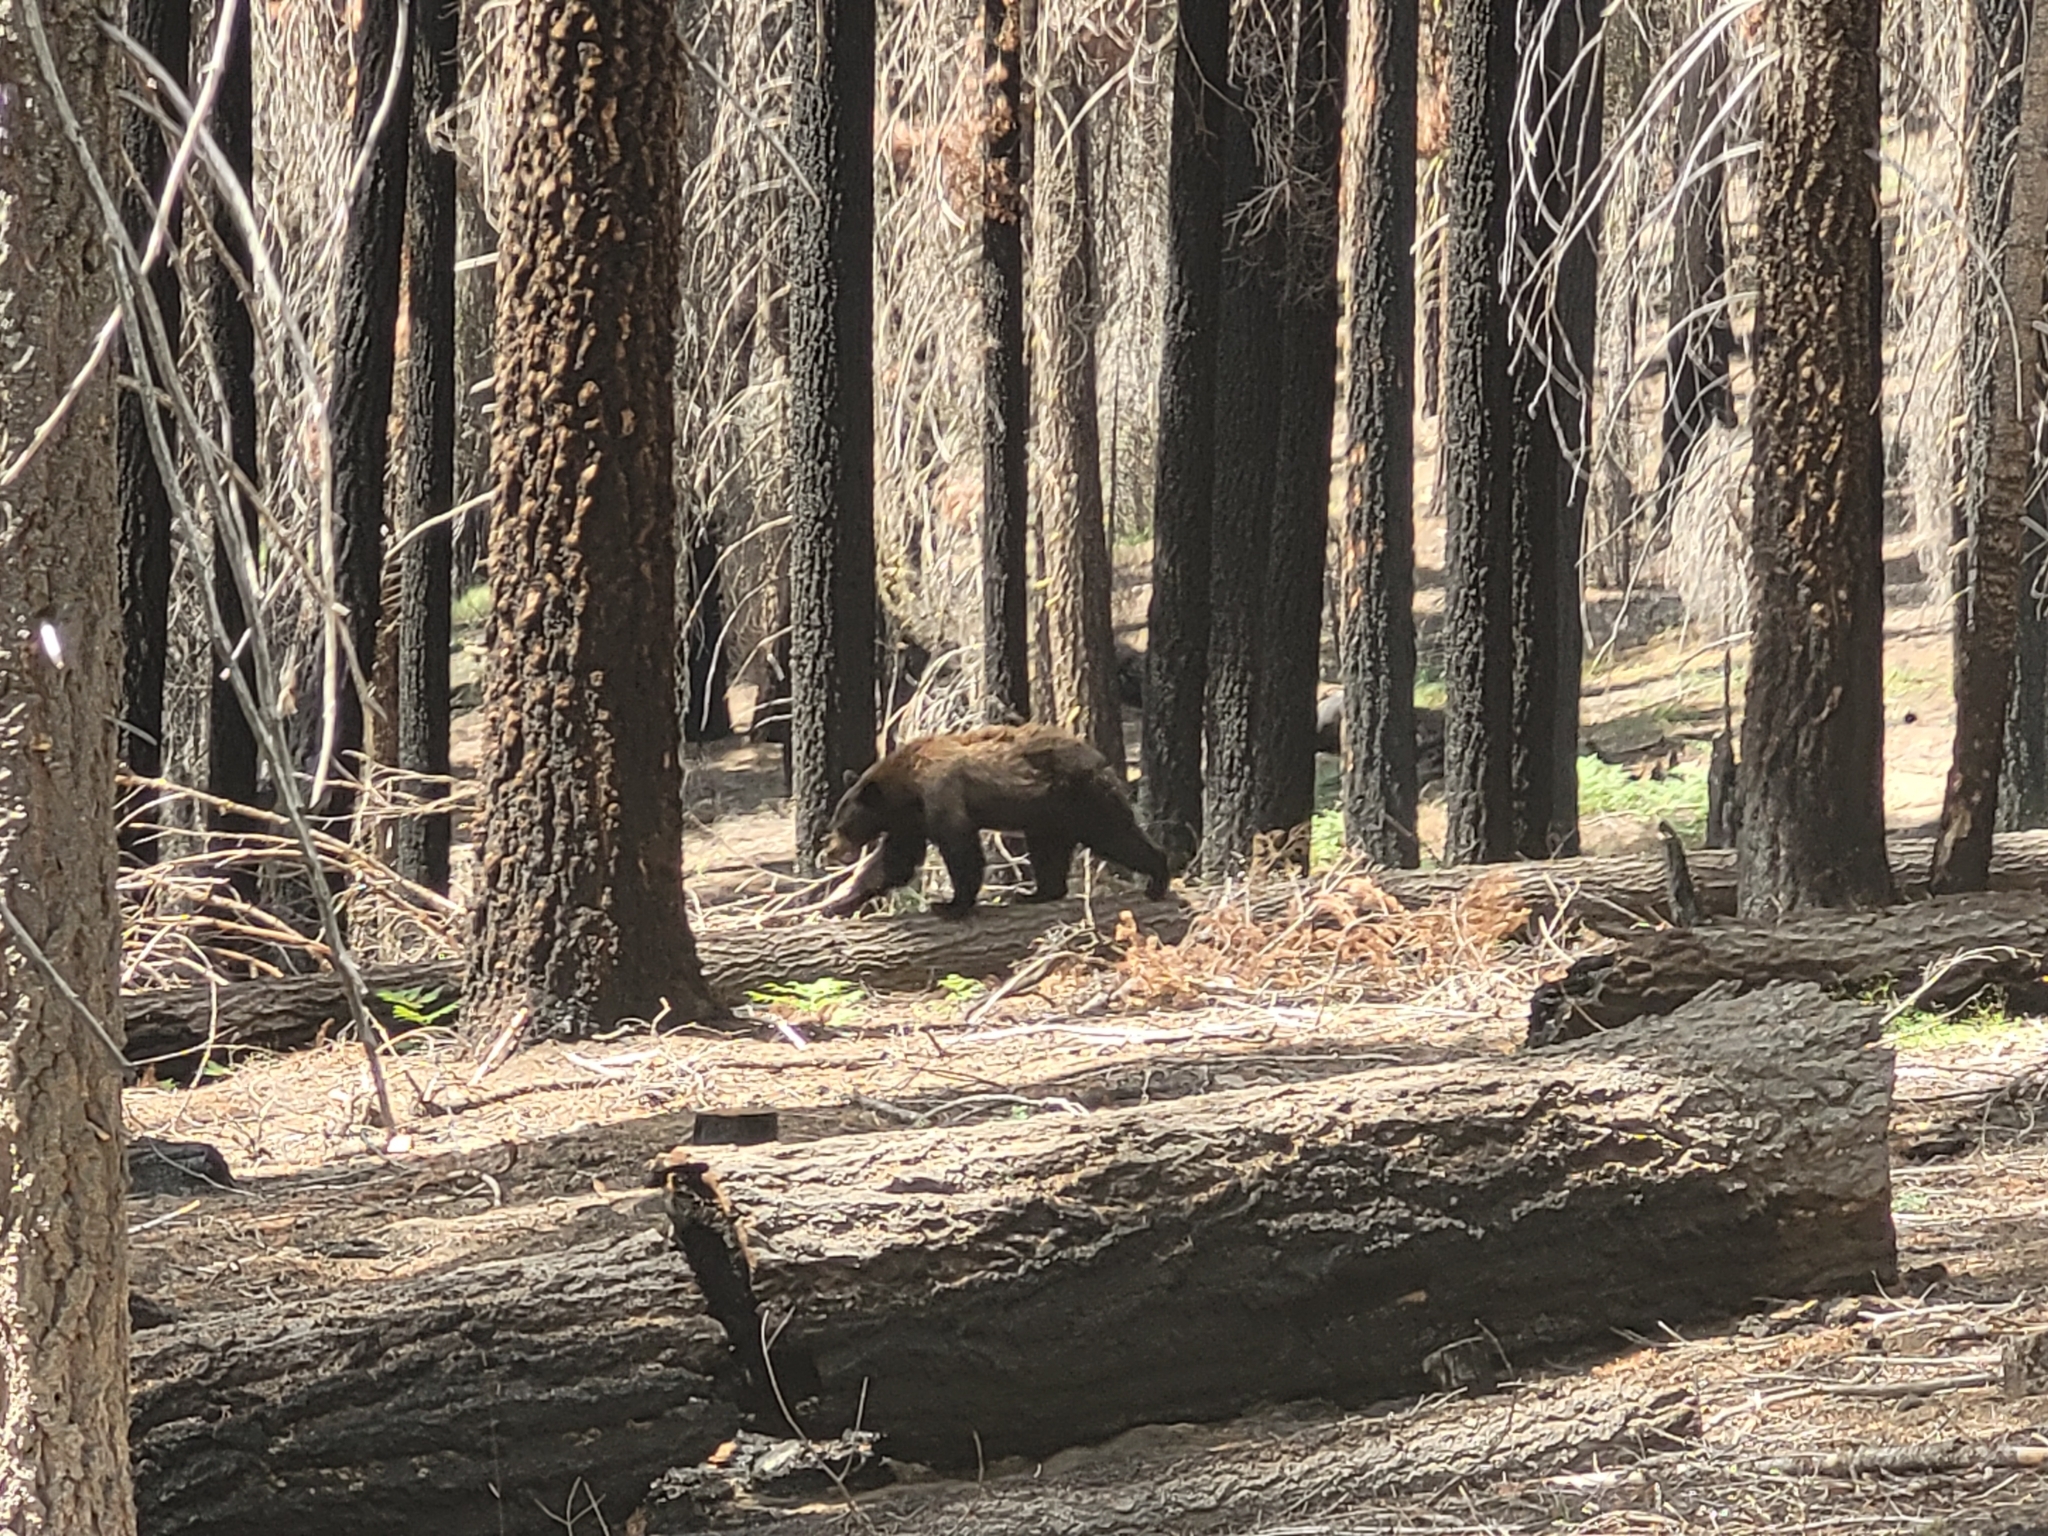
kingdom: Animalia
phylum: Chordata
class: Mammalia
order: Carnivora
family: Ursidae
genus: Ursus
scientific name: Ursus americanus
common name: American black bear
